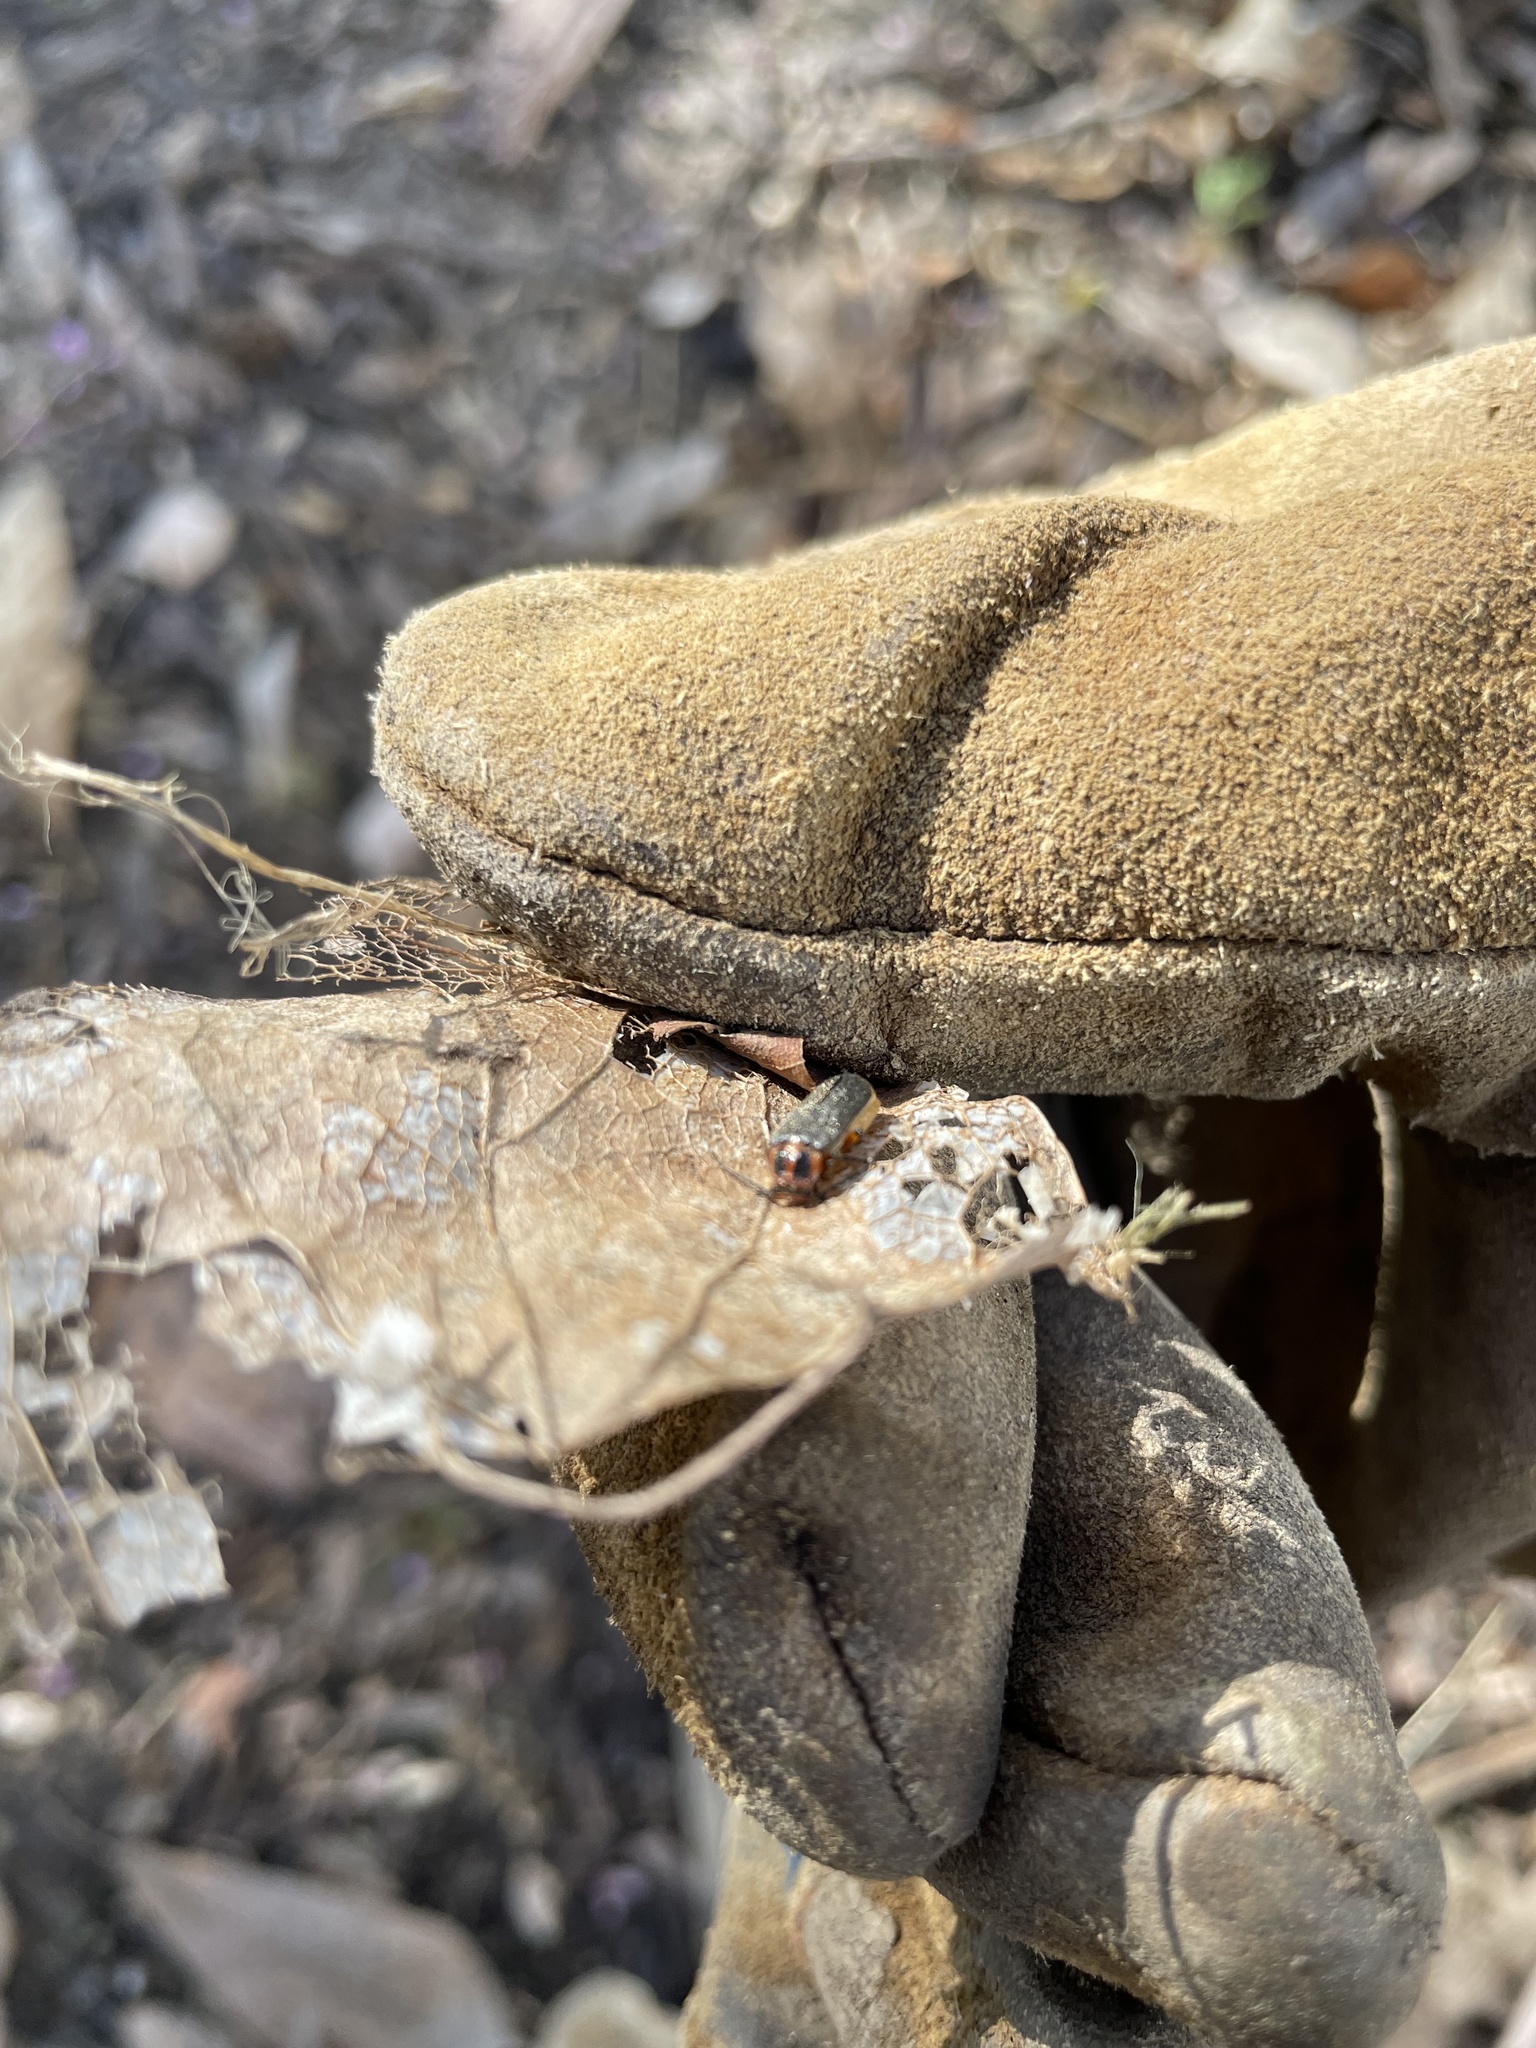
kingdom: Animalia
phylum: Arthropoda
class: Insecta
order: Coleoptera
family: Cantharidae
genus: Atalantycha
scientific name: Atalantycha bilineata
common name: Two-lined leatherwing
